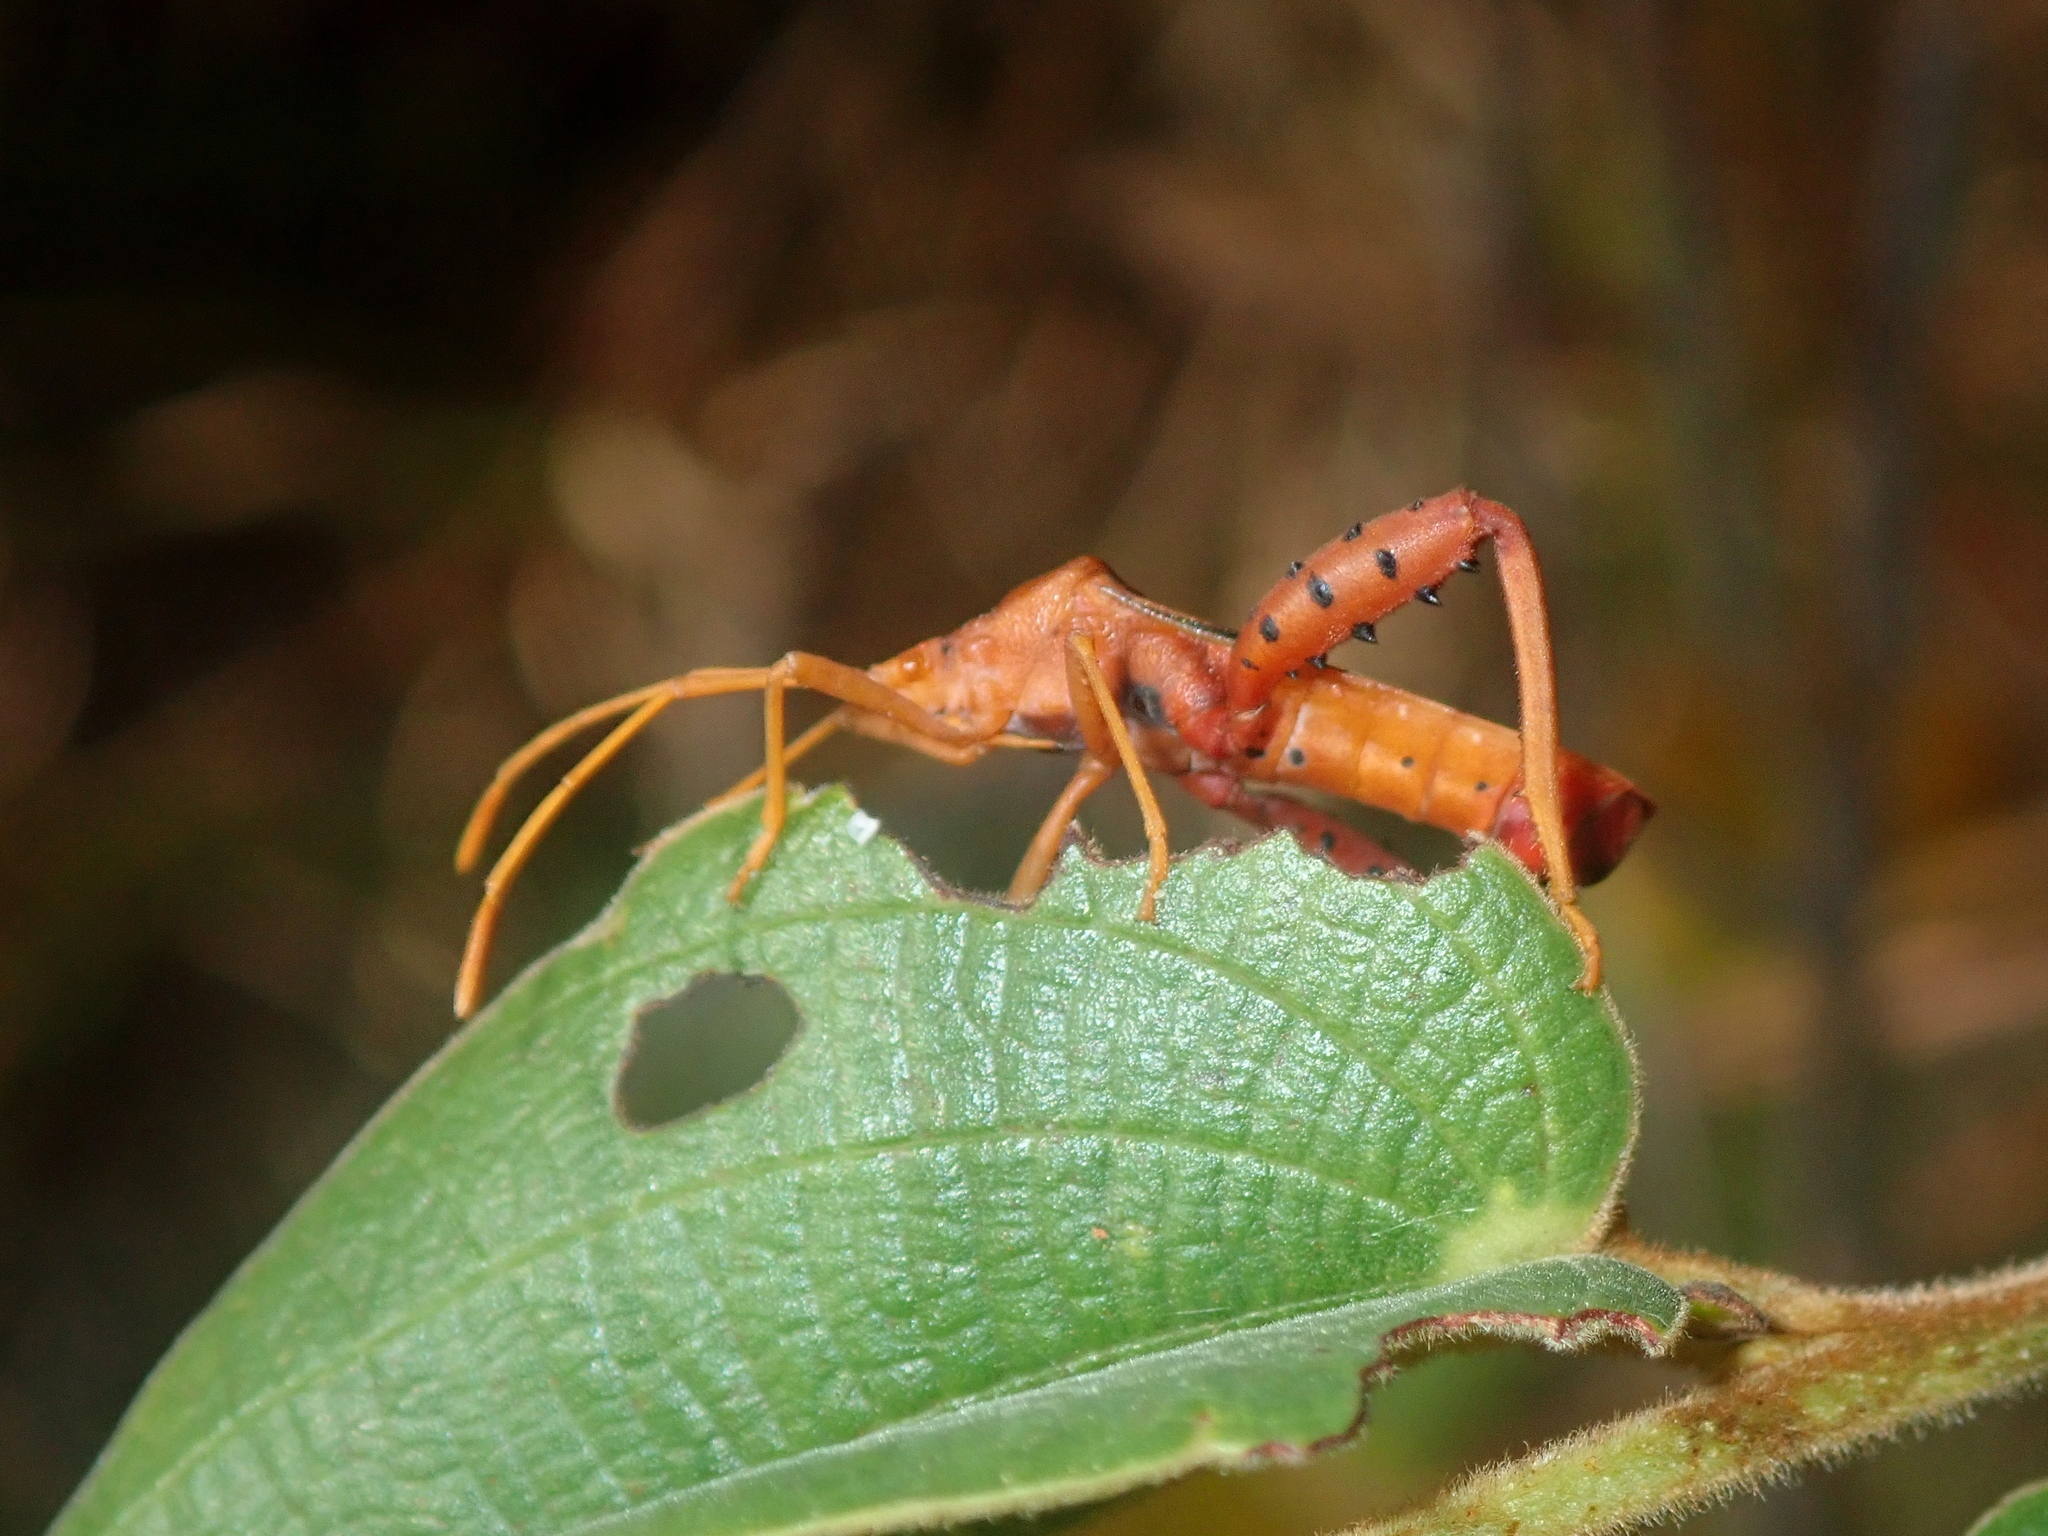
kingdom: Animalia
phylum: Arthropoda
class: Insecta
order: Hemiptera
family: Coreidae
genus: Crinocerus
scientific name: Crinocerus sanctus
